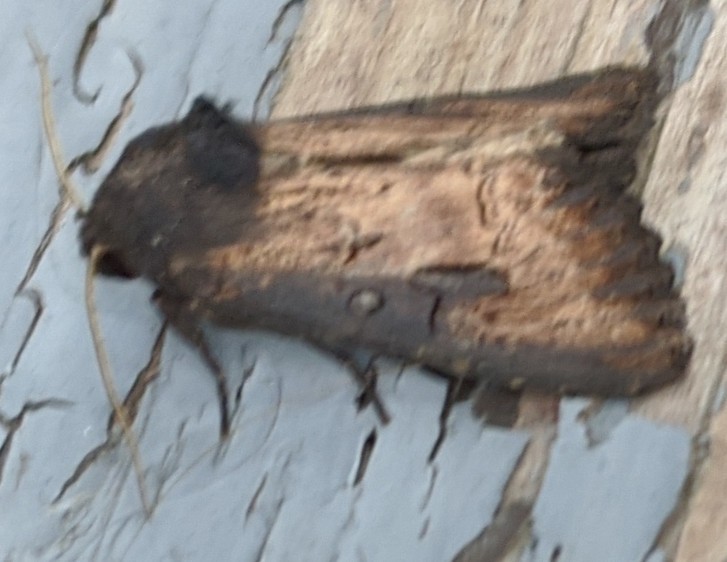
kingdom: Animalia
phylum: Arthropoda
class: Insecta
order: Lepidoptera
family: Noctuidae
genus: Macronoctua
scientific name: Macronoctua onusta
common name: Iris borer
